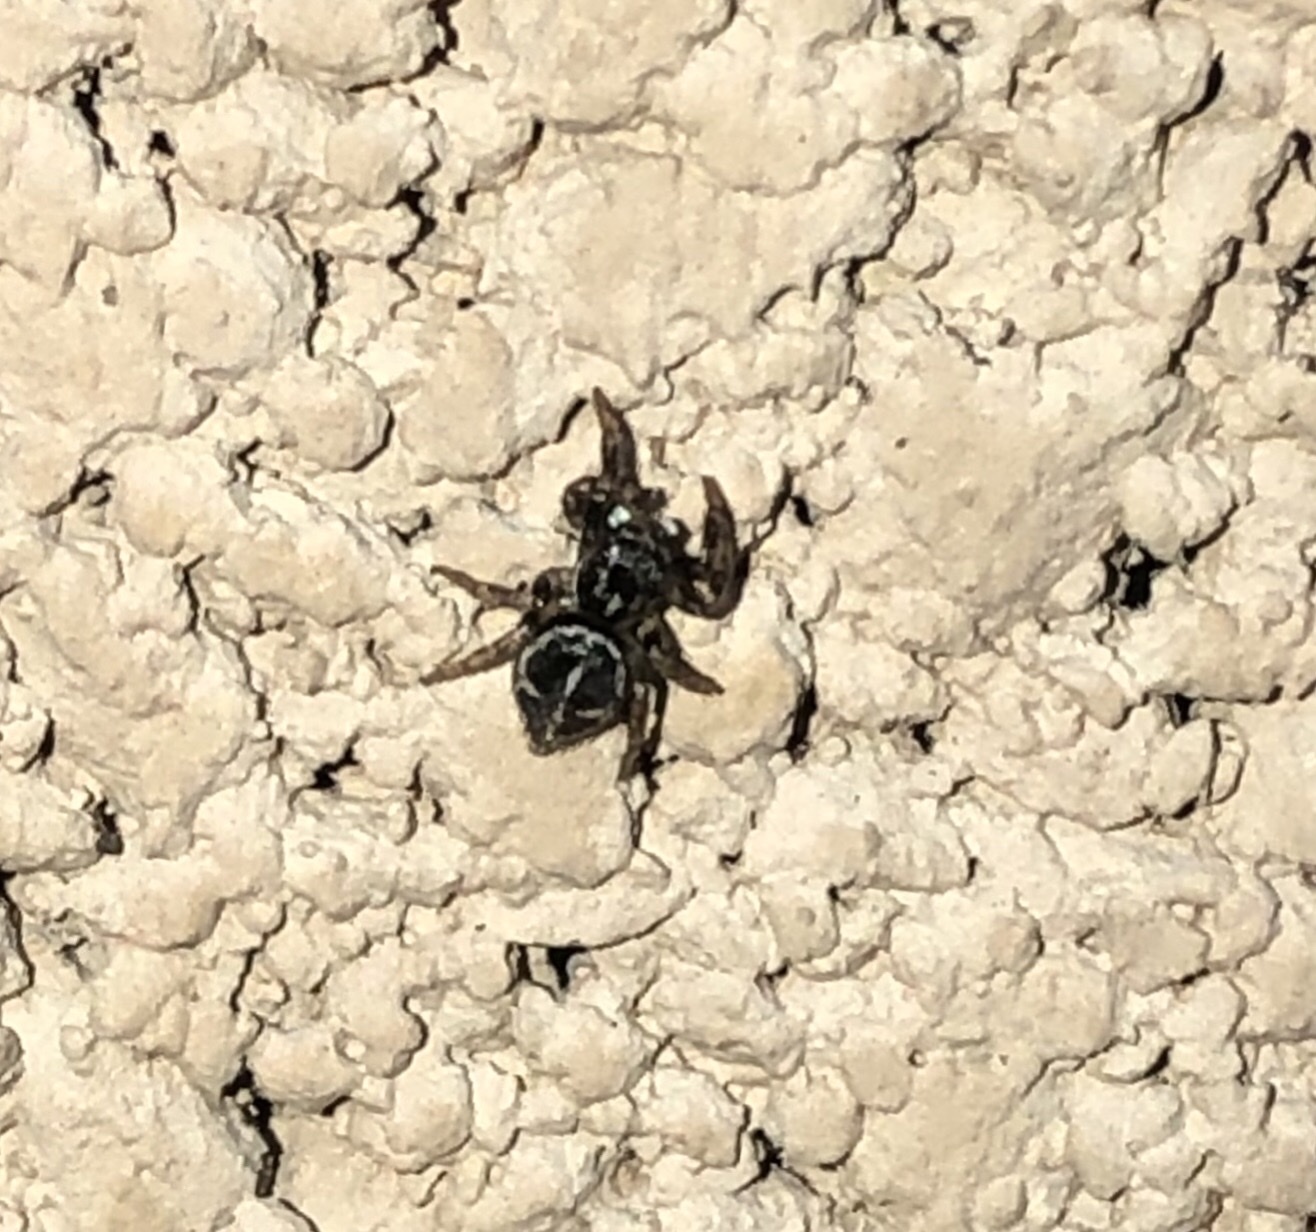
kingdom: Animalia
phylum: Arthropoda
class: Arachnida
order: Araneae
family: Salticidae
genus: Anasaitis
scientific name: Anasaitis canosa
